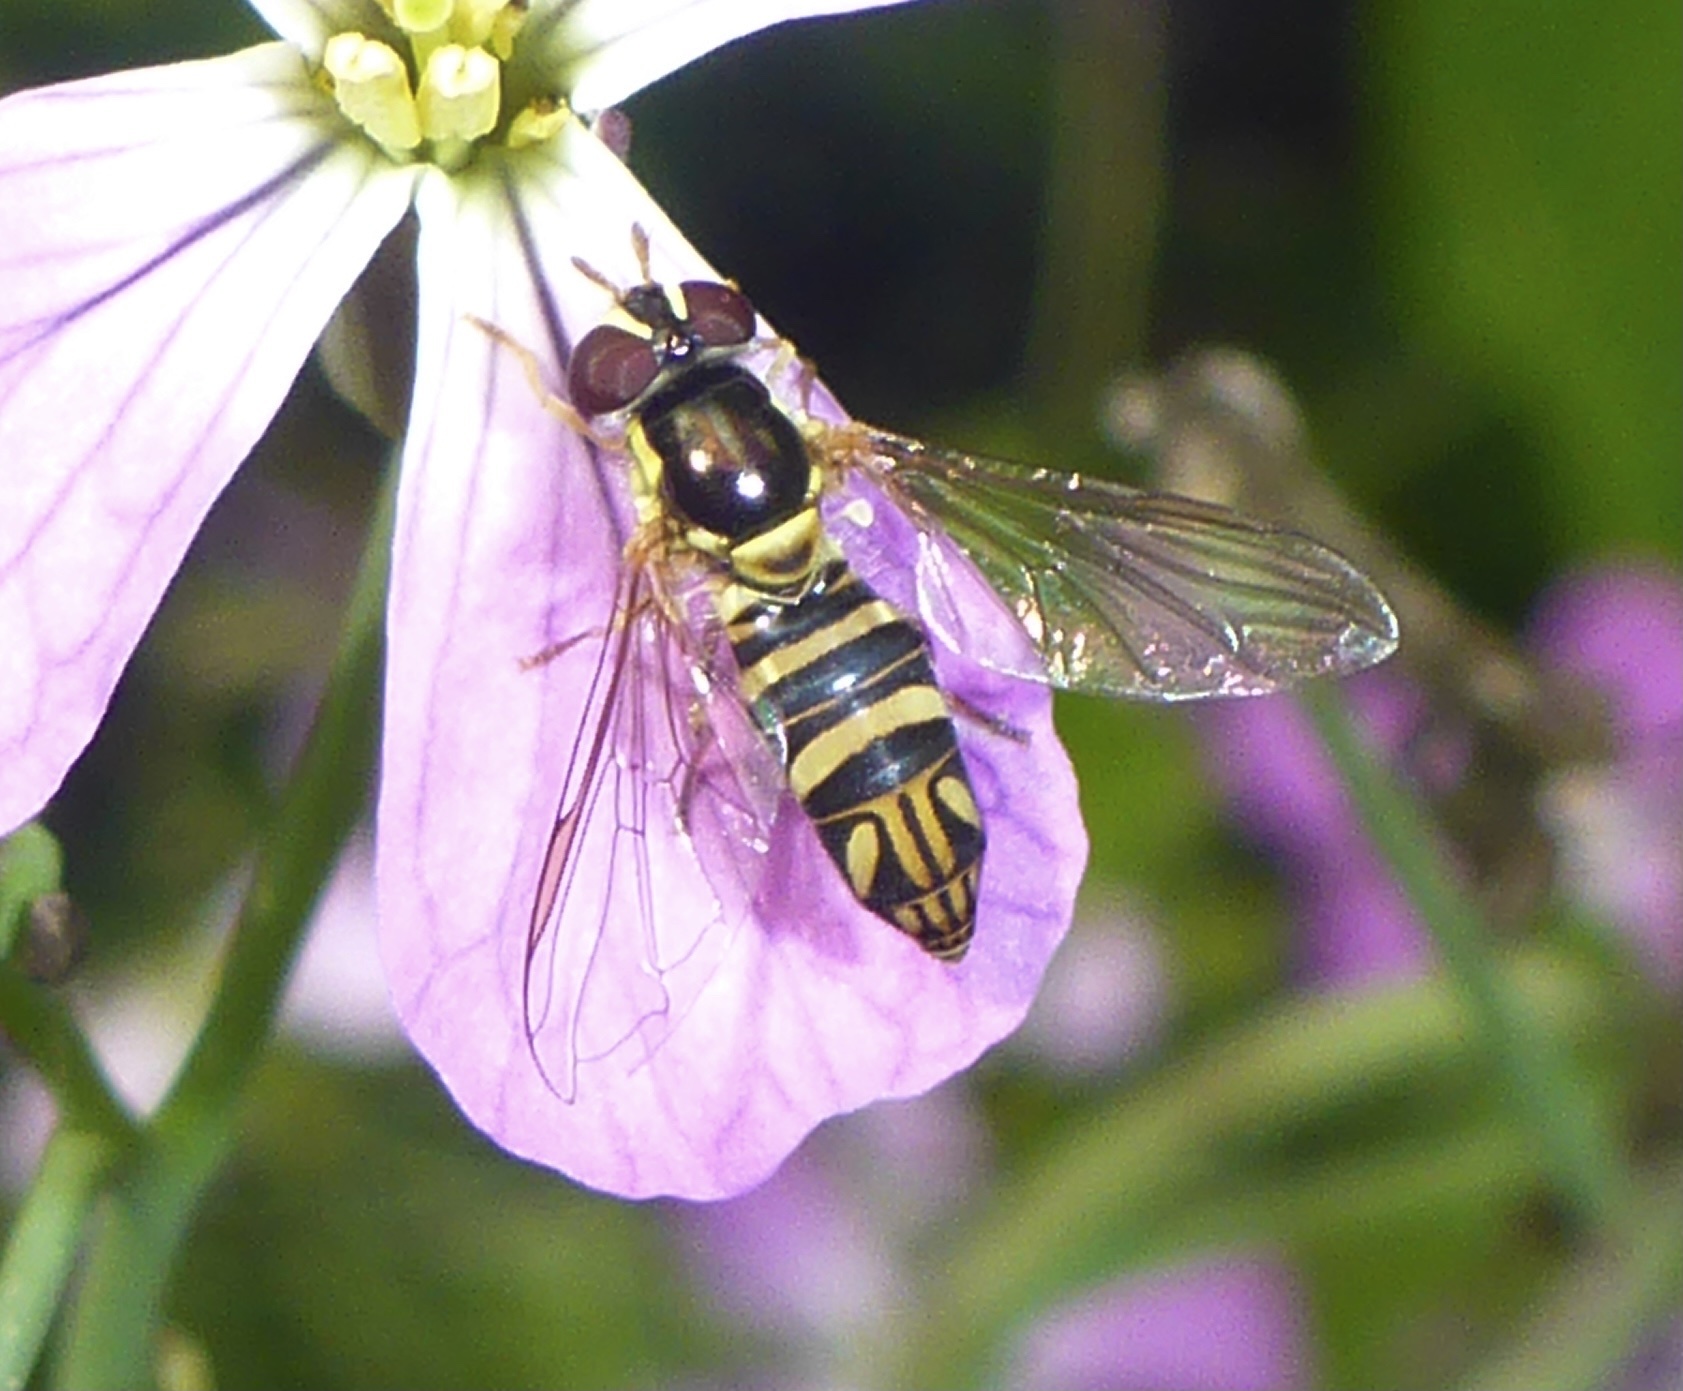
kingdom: Animalia
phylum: Arthropoda
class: Insecta
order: Diptera
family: Syrphidae
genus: Allograpta
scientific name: Allograpta obliqua
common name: Common oblique syrphid
